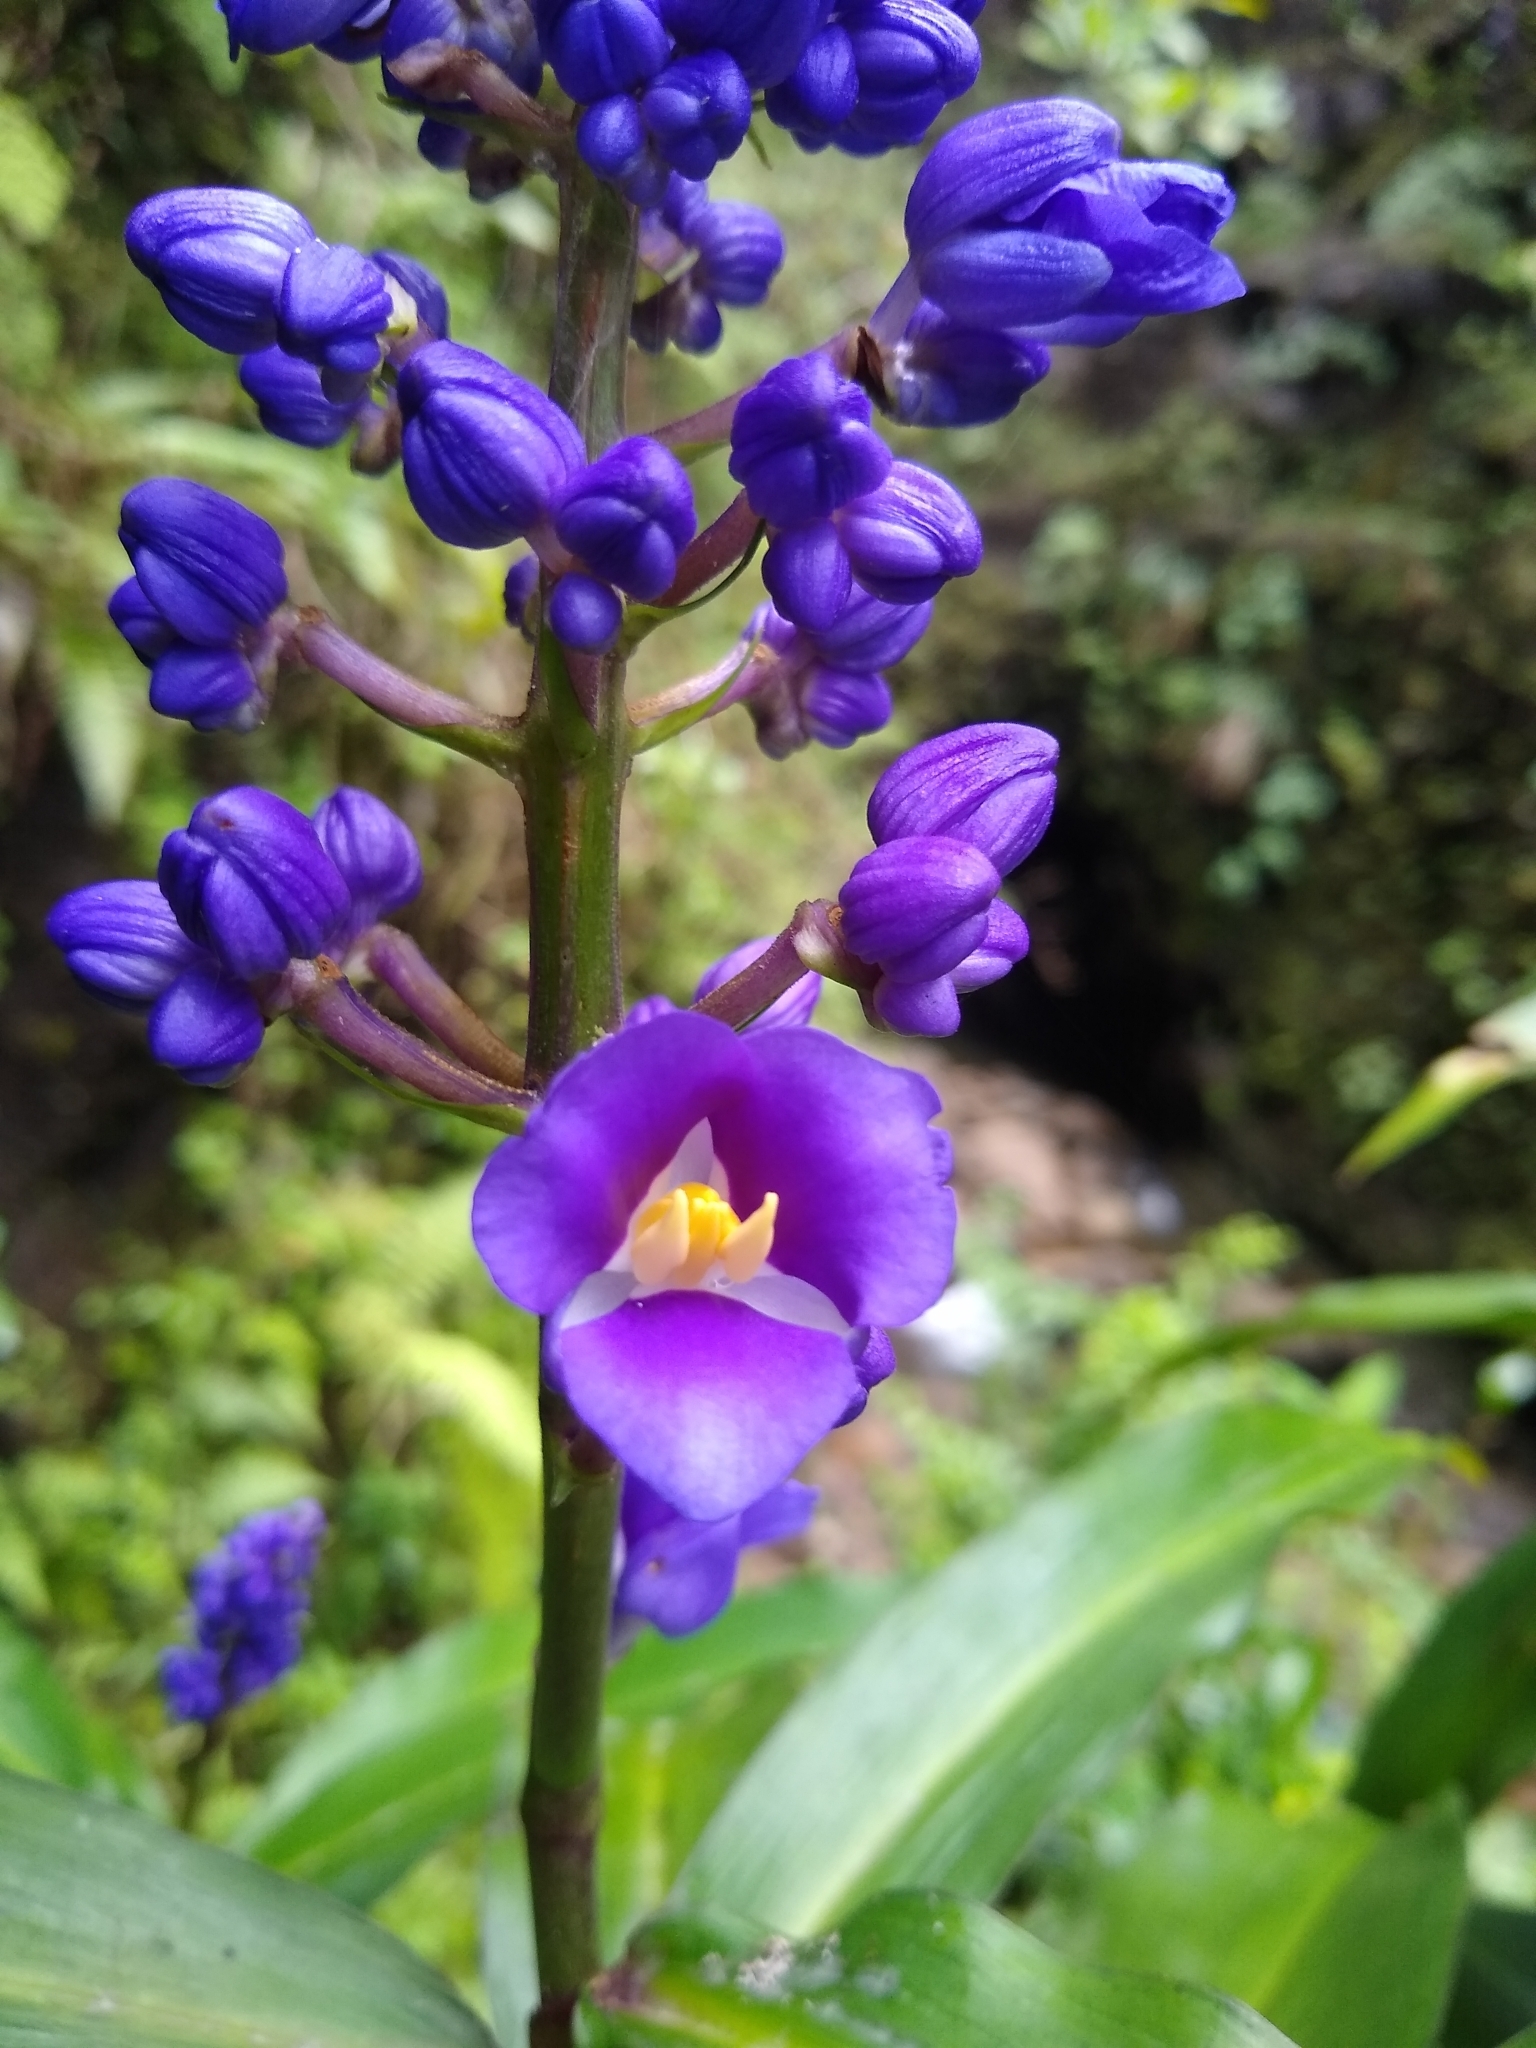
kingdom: Plantae
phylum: Tracheophyta
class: Liliopsida
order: Commelinales
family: Commelinaceae
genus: Dichorisandra
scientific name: Dichorisandra thyrsiflora
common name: Blue-ginger
